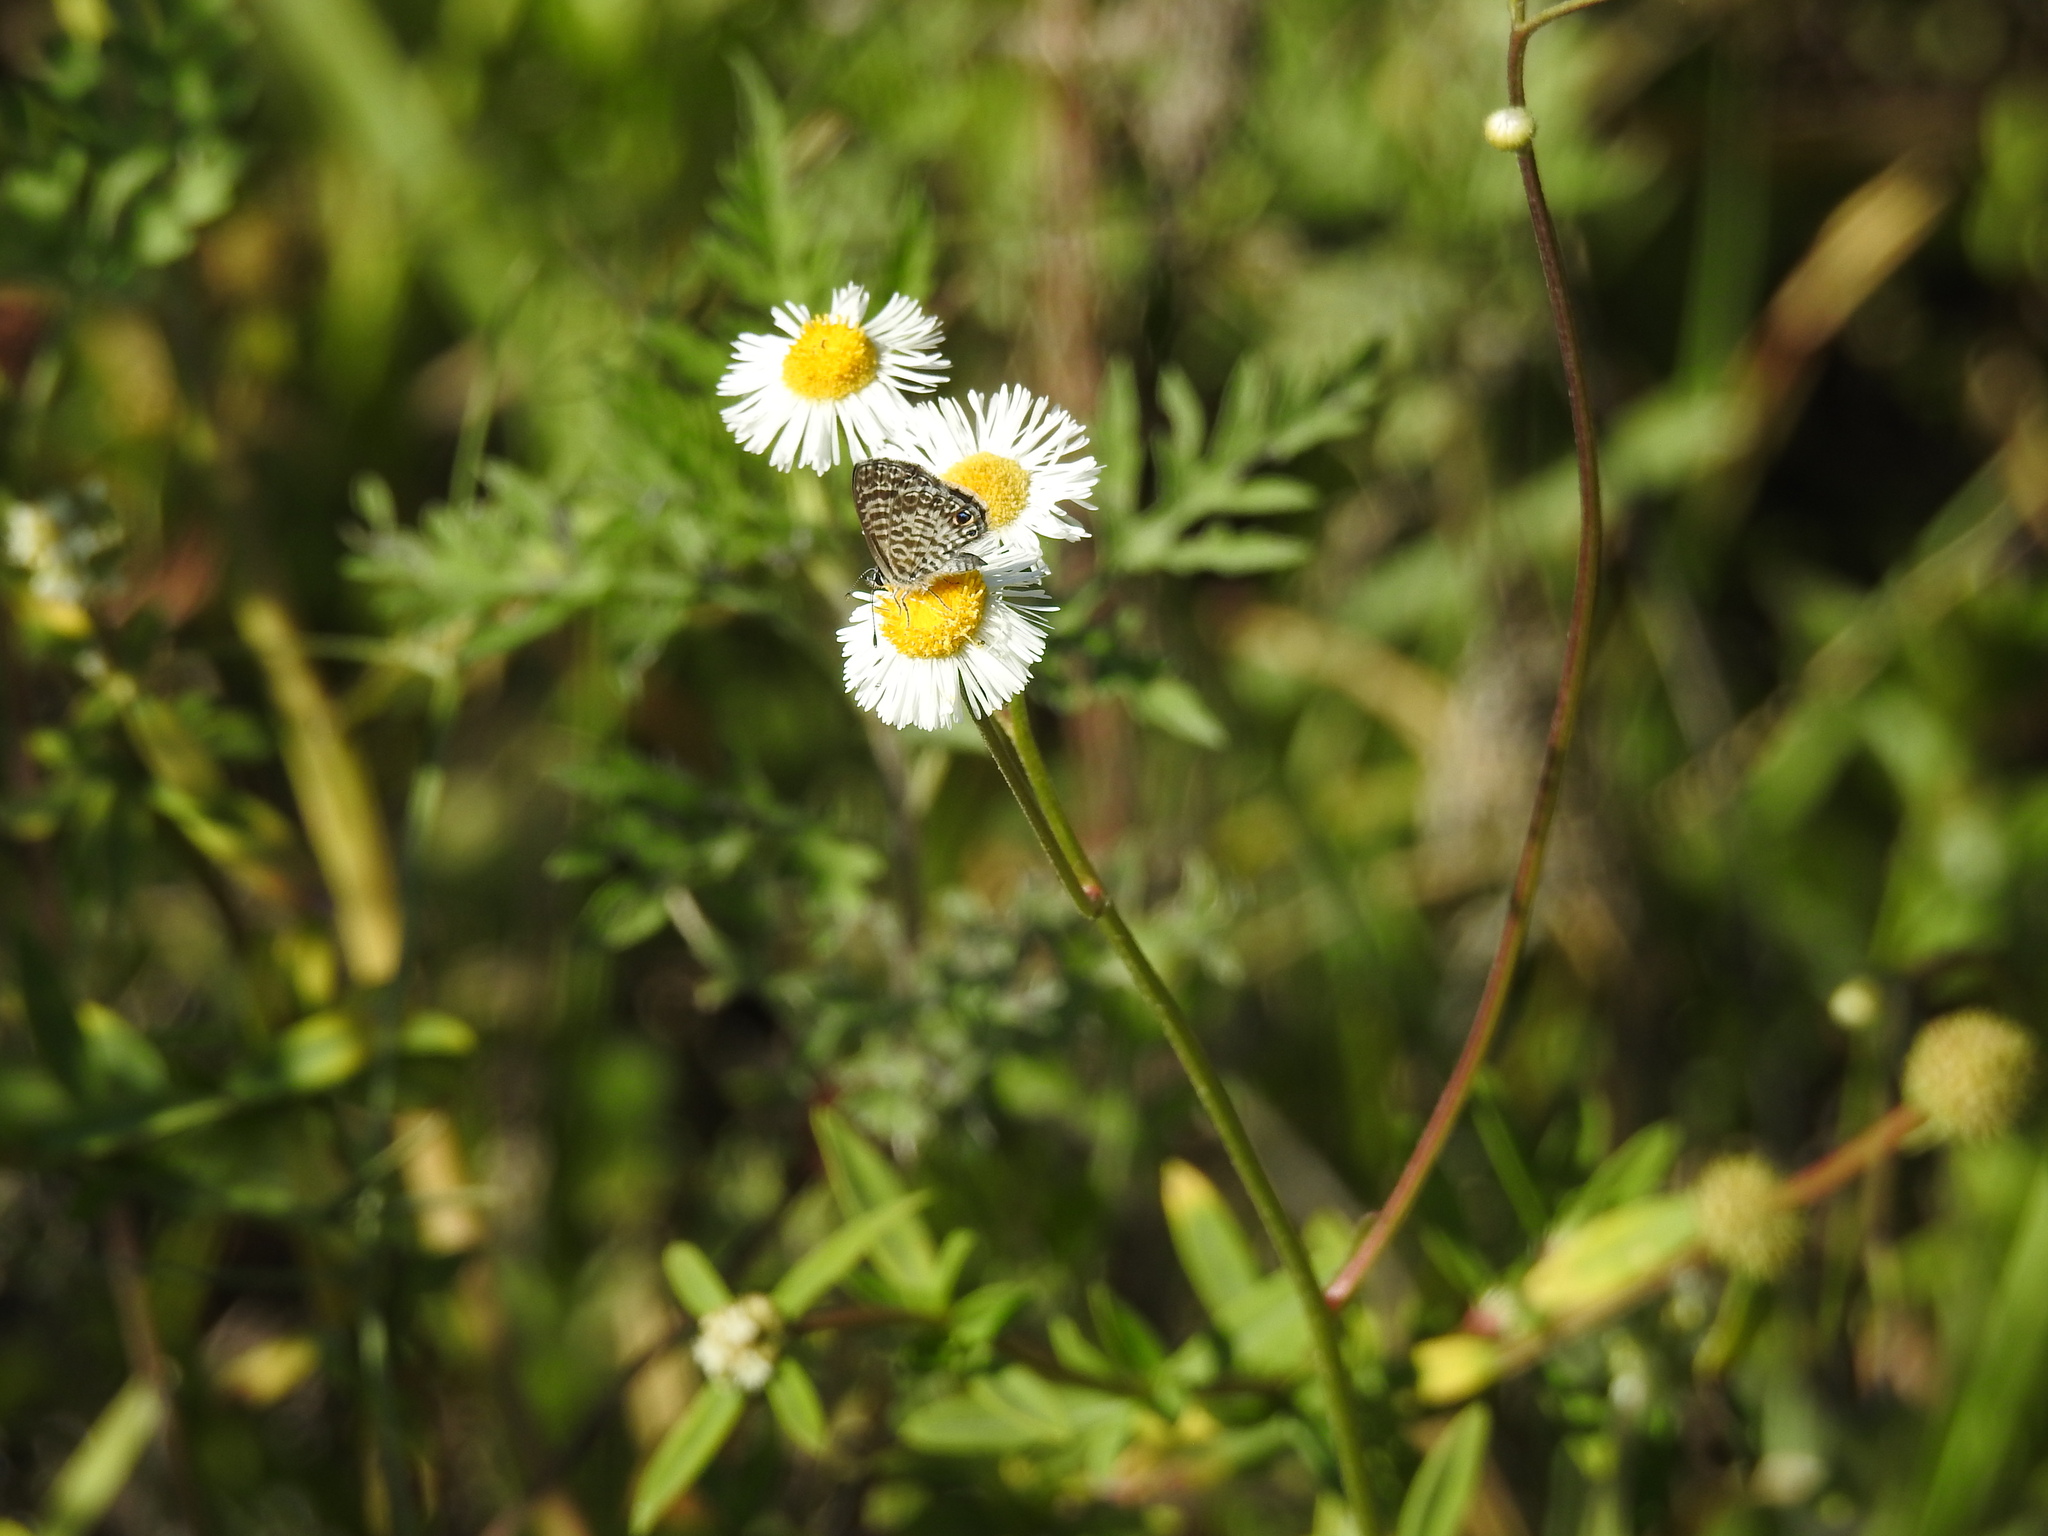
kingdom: Animalia
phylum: Arthropoda
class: Insecta
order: Lepidoptera
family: Lycaenidae
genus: Leptotes
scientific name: Leptotes cassius
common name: Cassius blue
